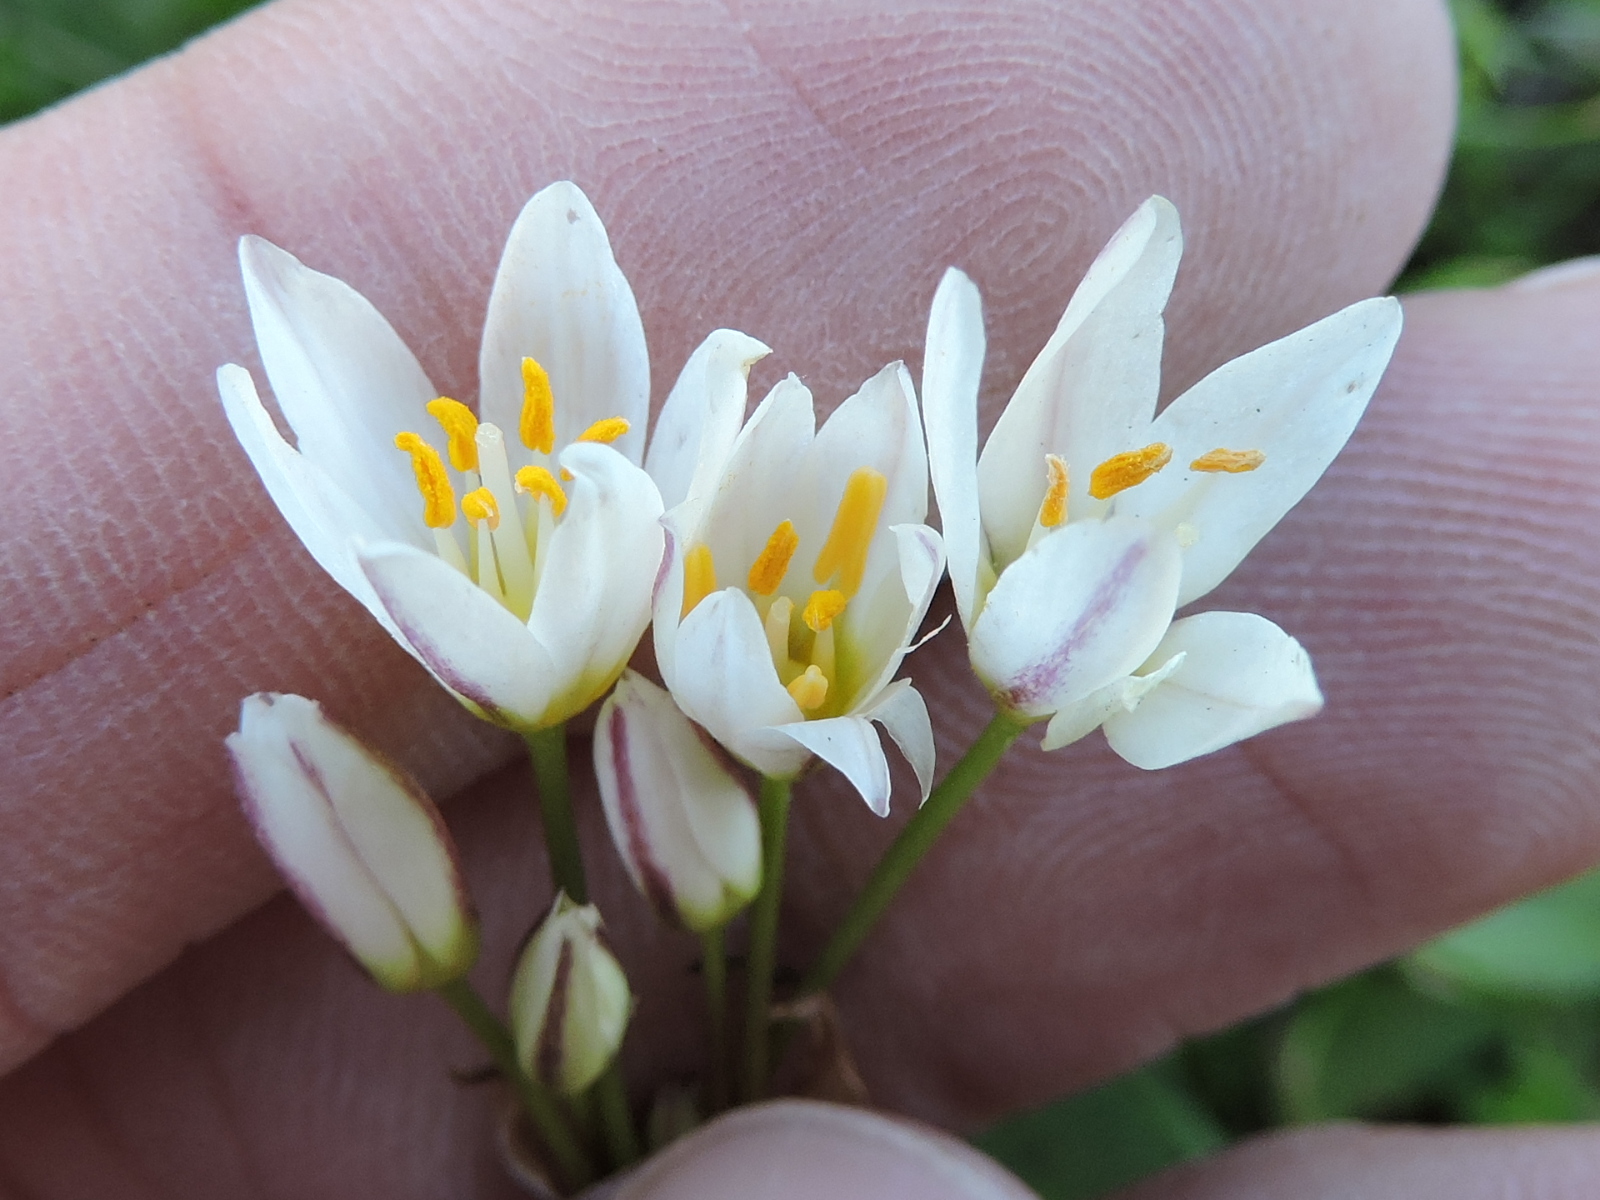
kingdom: Plantae
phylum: Tracheophyta
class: Liliopsida
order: Asparagales
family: Amaryllidaceae
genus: Nothoscordum
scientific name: Nothoscordum bivalve
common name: Crow-poison
